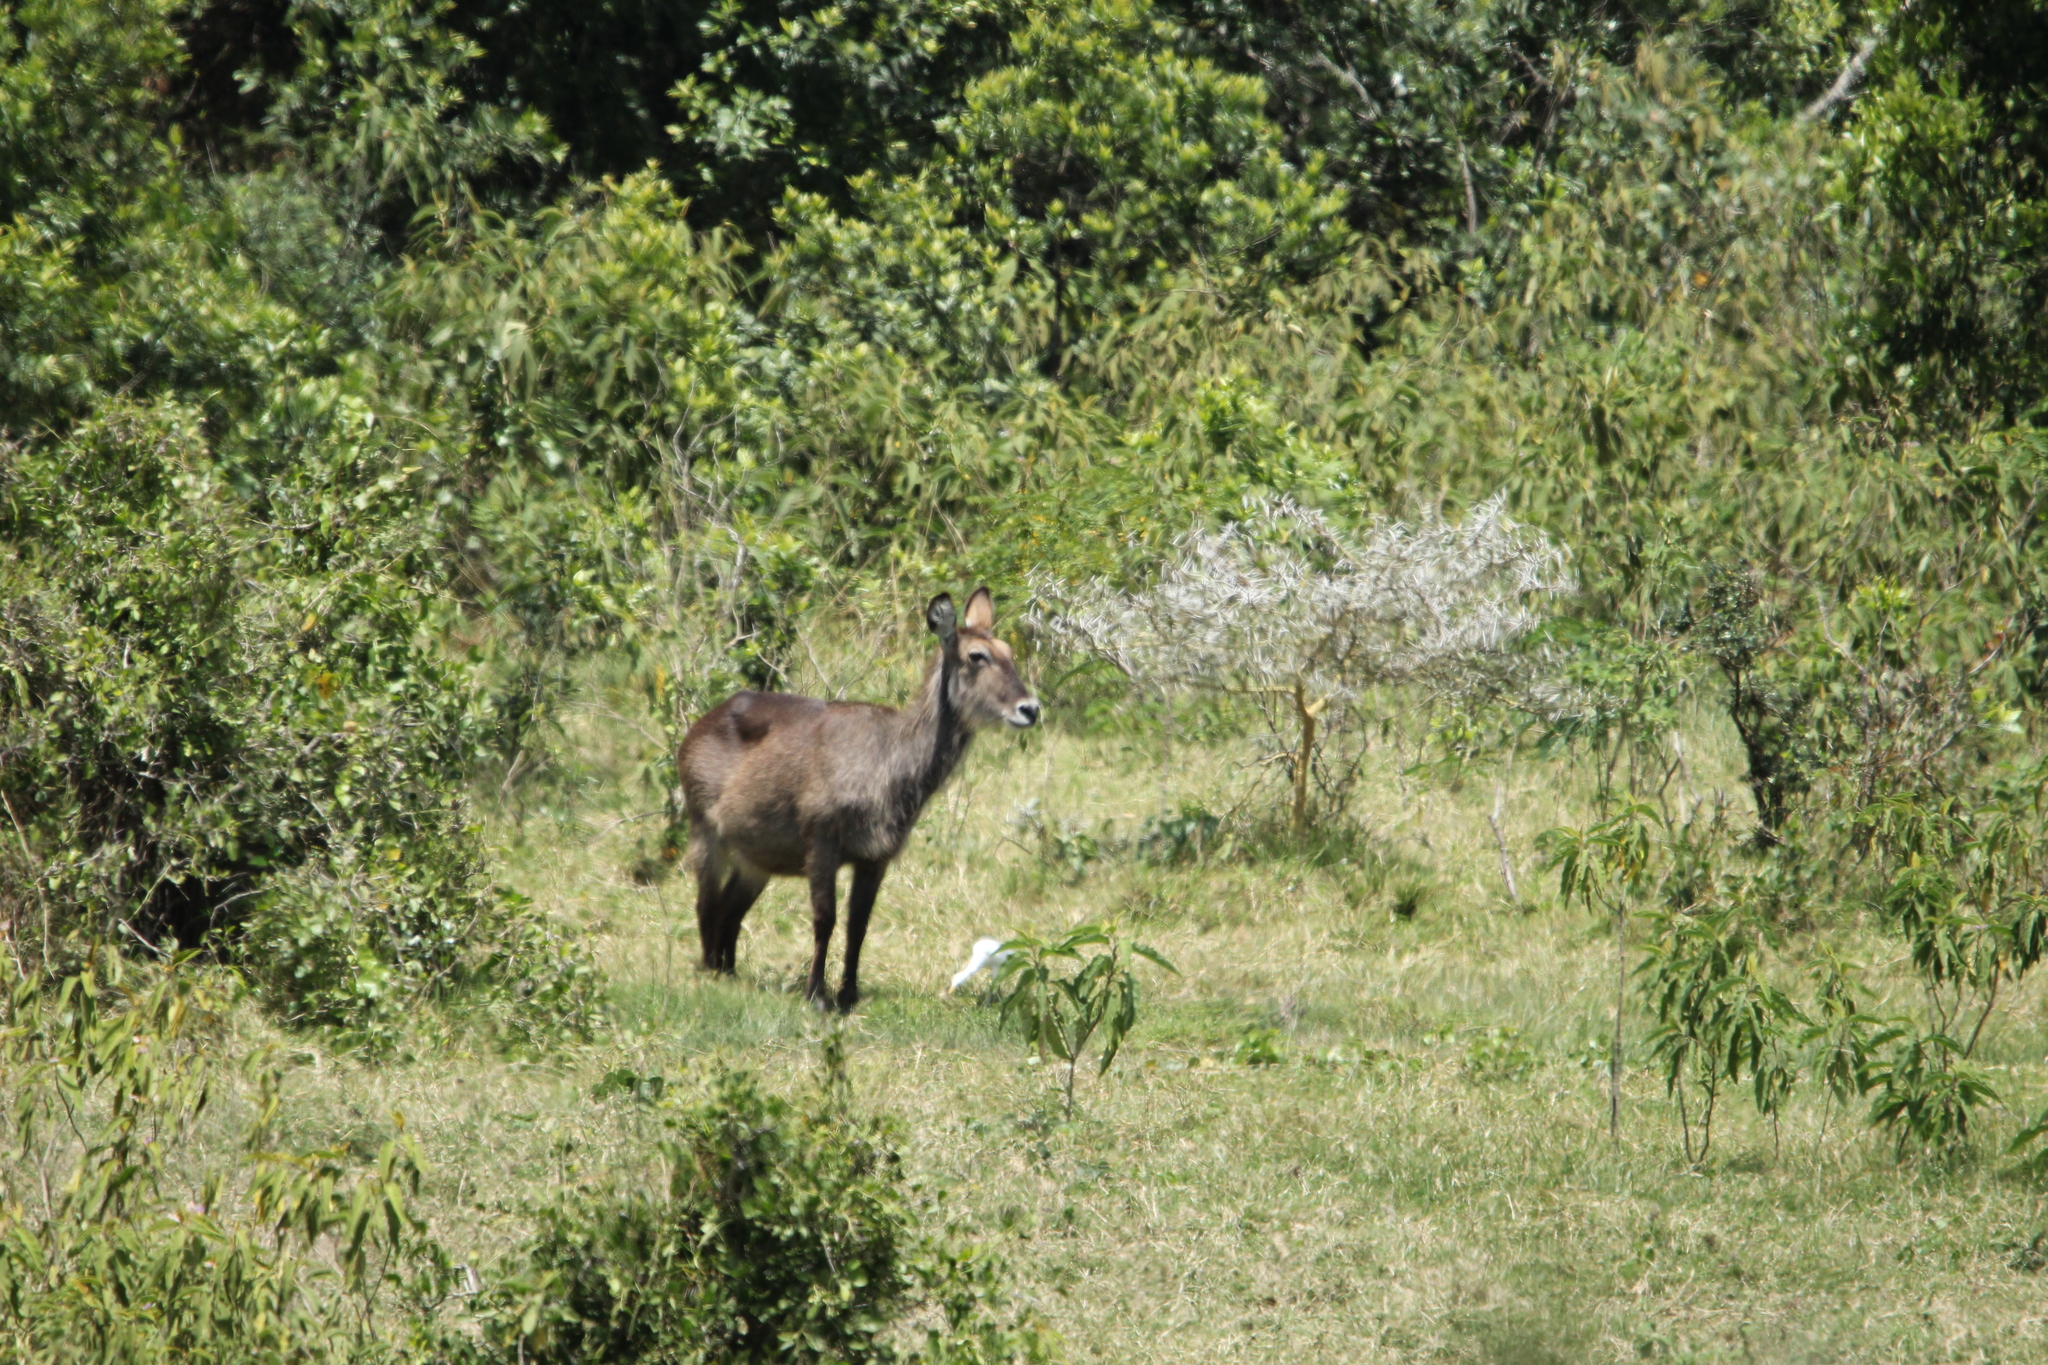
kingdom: Animalia
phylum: Chordata
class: Mammalia
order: Artiodactyla
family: Bovidae
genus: Kobus
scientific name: Kobus ellipsiprymnus
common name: Waterbuck
